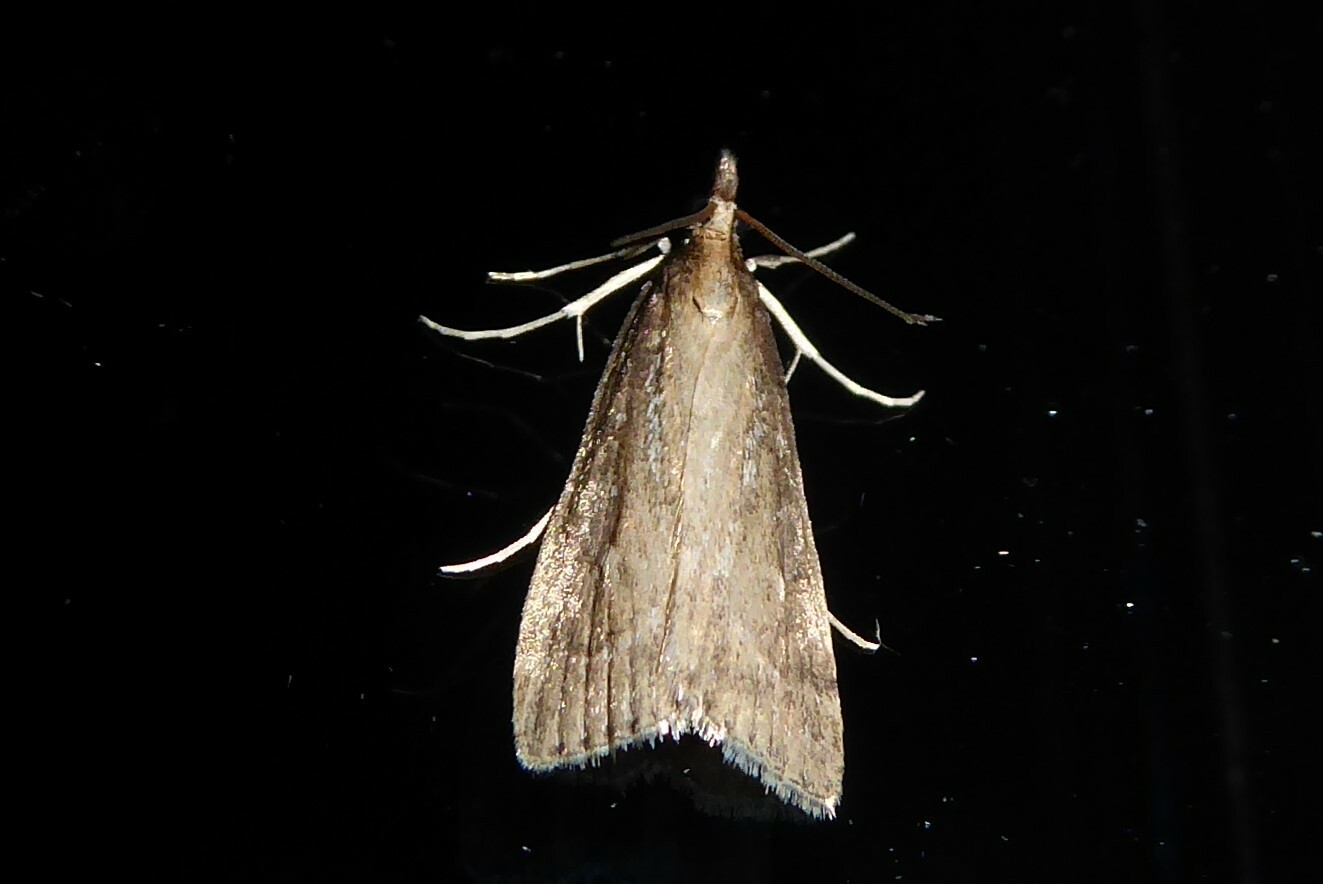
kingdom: Animalia
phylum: Arthropoda
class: Insecta
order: Lepidoptera
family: Crambidae
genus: Eudonia
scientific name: Eudonia octophora
